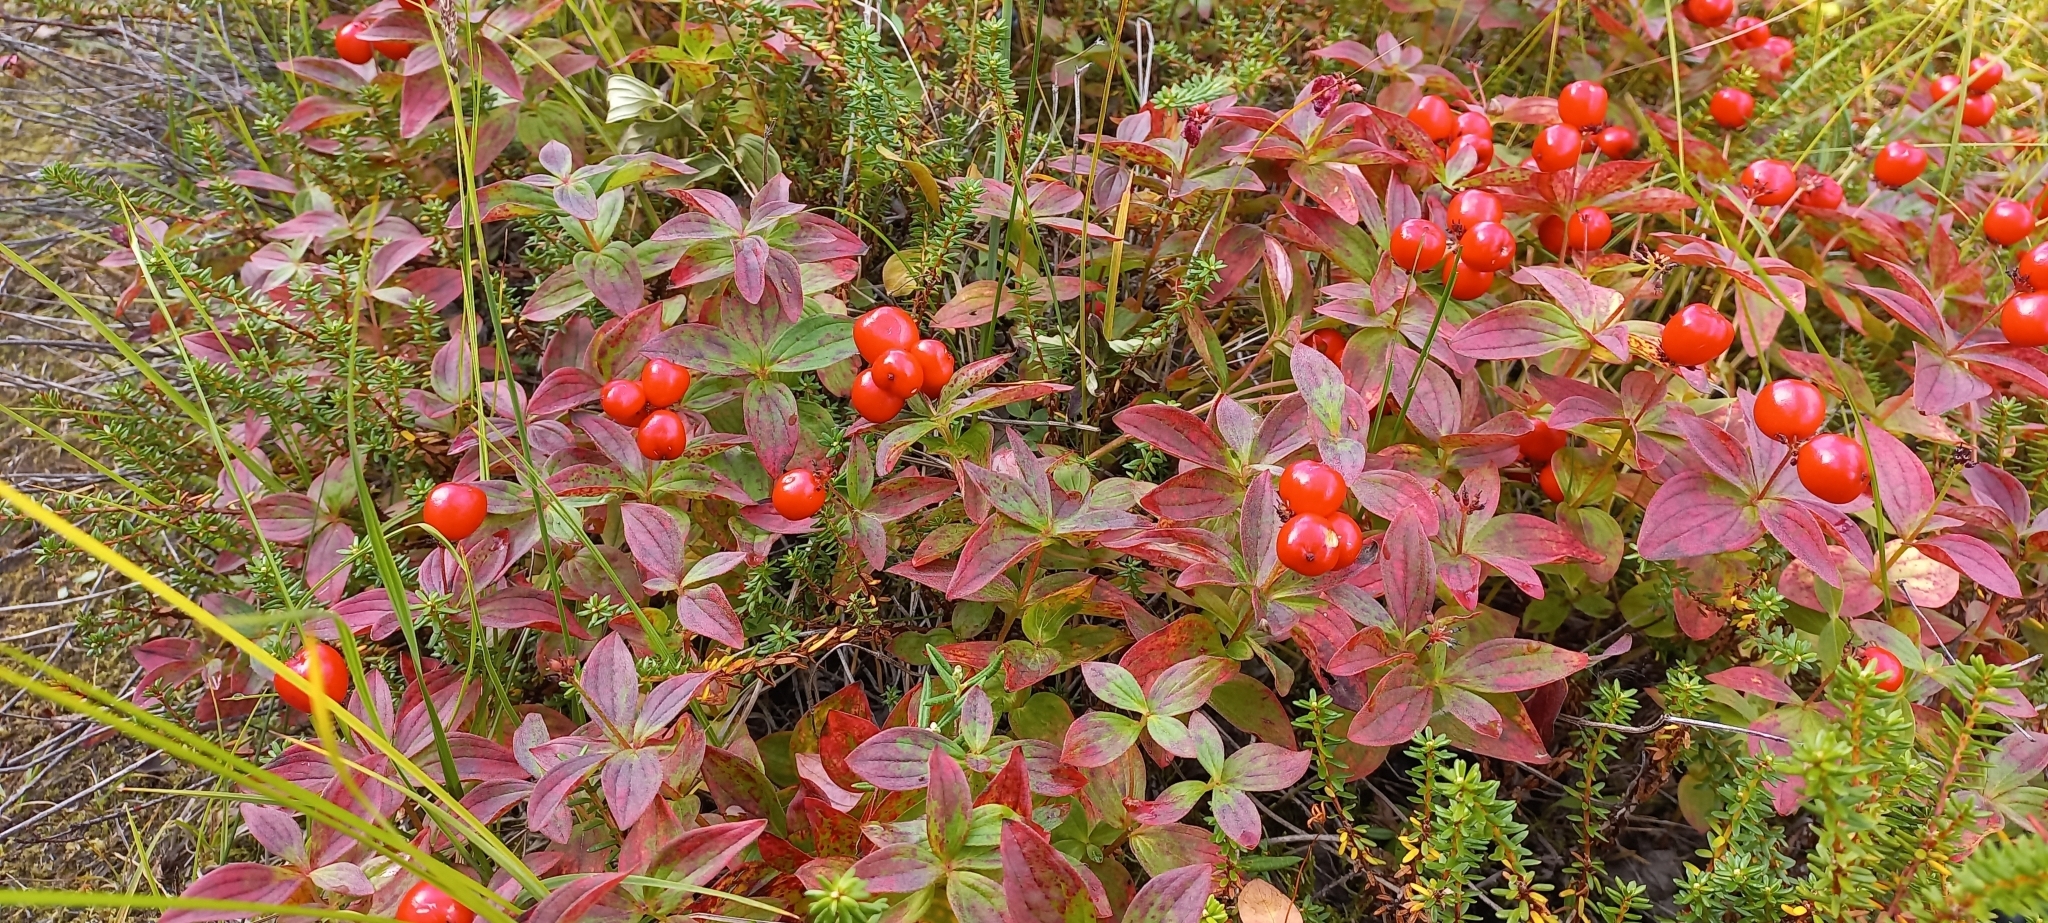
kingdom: Plantae
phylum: Tracheophyta
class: Magnoliopsida
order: Cornales
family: Cornaceae
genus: Cornus
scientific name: Cornus suecica
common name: Dwarf cornel
